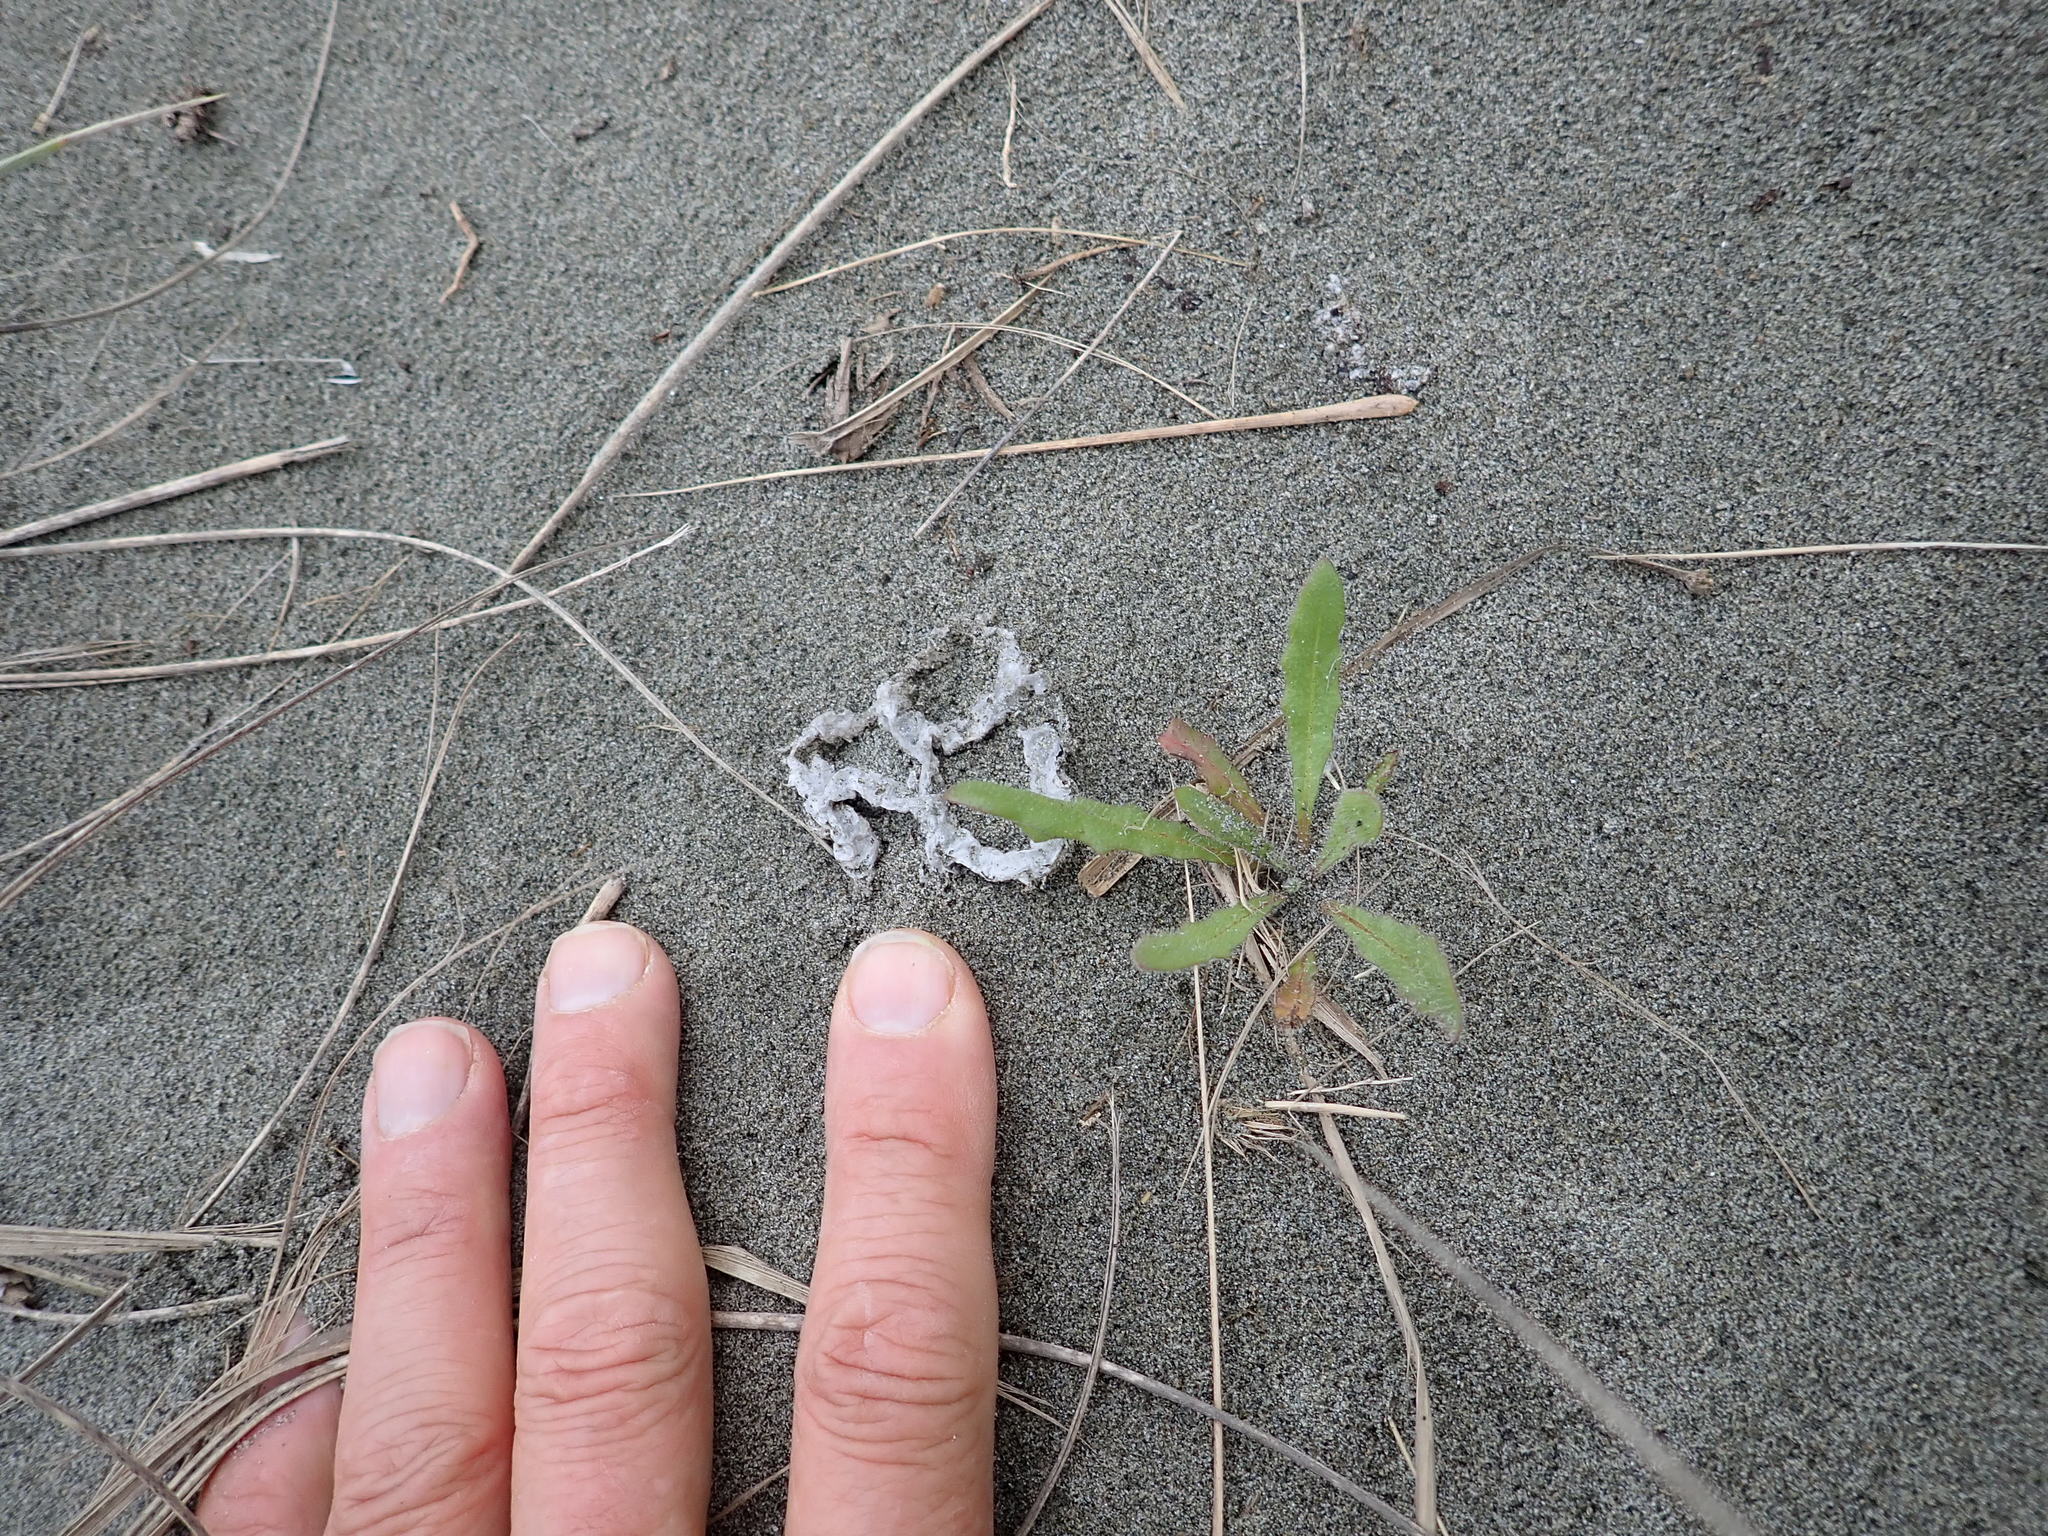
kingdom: Fungi
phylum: Basidiomycota
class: Agaricomycetes
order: Phallales
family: Phallaceae
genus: Ileodictyon
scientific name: Ileodictyon cibarium
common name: Basket fungus
